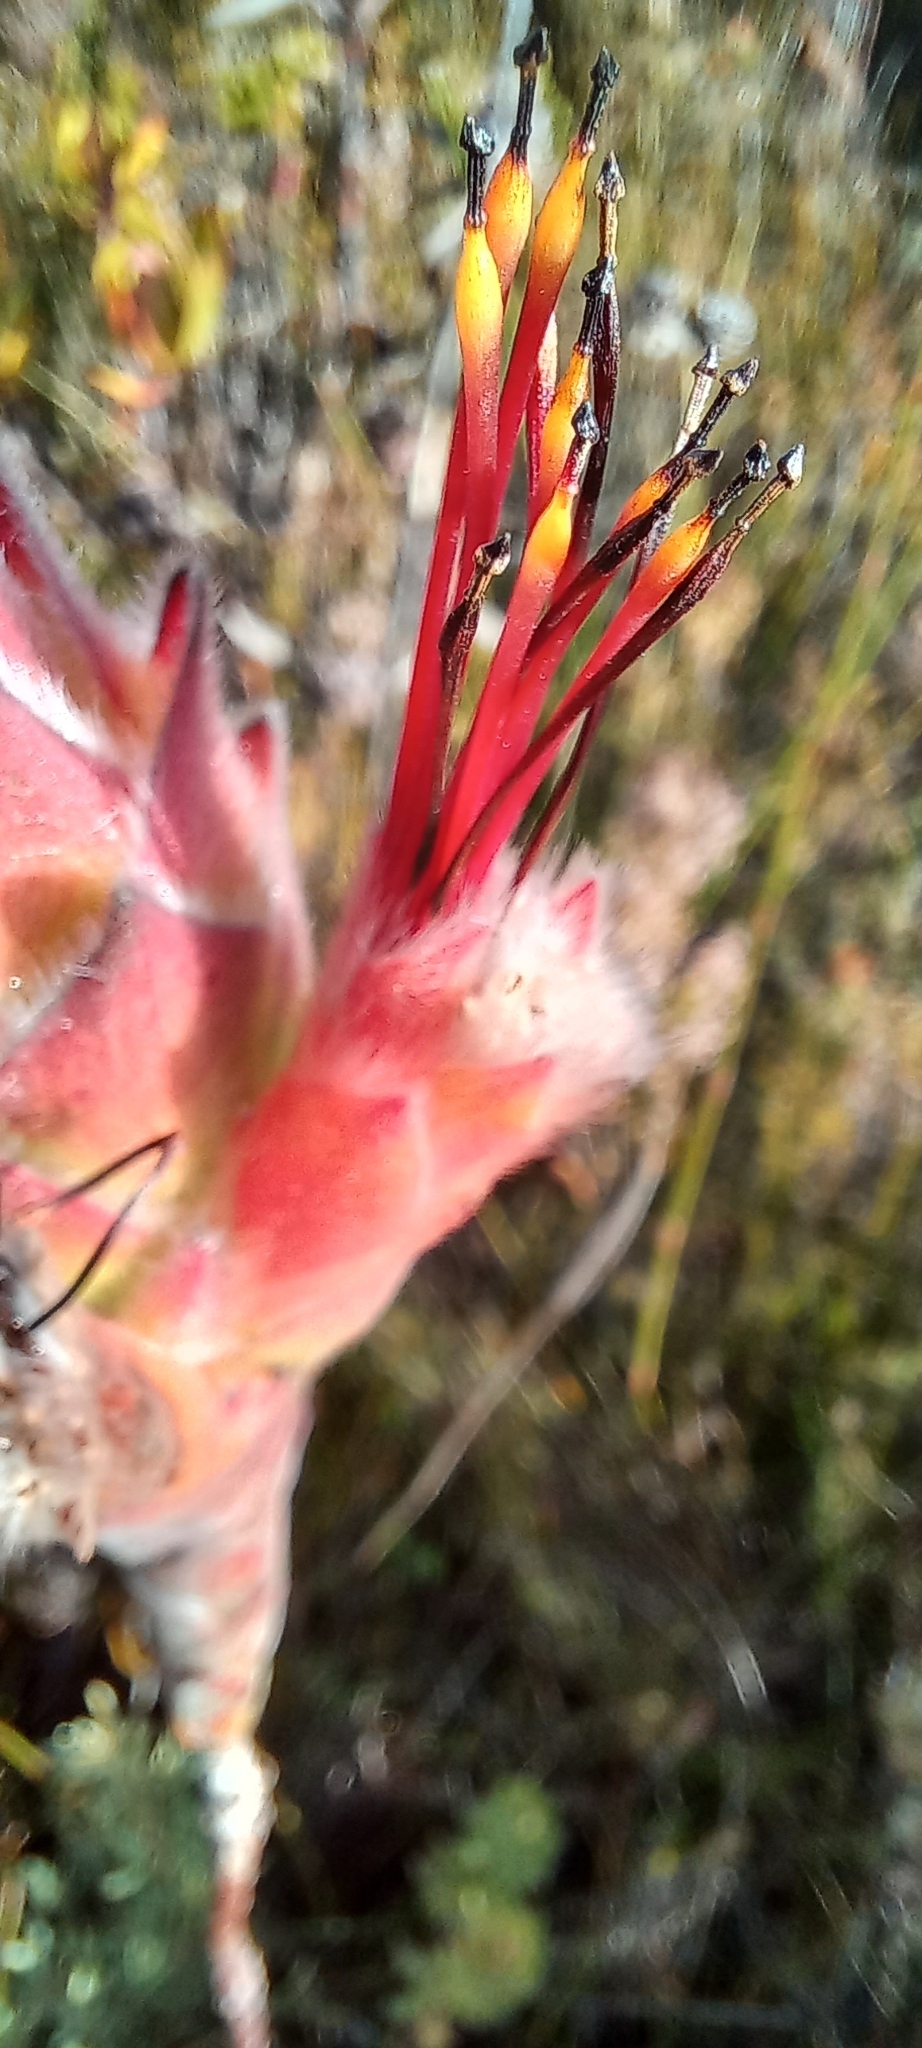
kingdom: Plantae
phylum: Tracheophyta
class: Magnoliopsida
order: Proteales
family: Proteaceae
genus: Mimetes
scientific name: Mimetes capitulatus
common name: Conical pagoda
